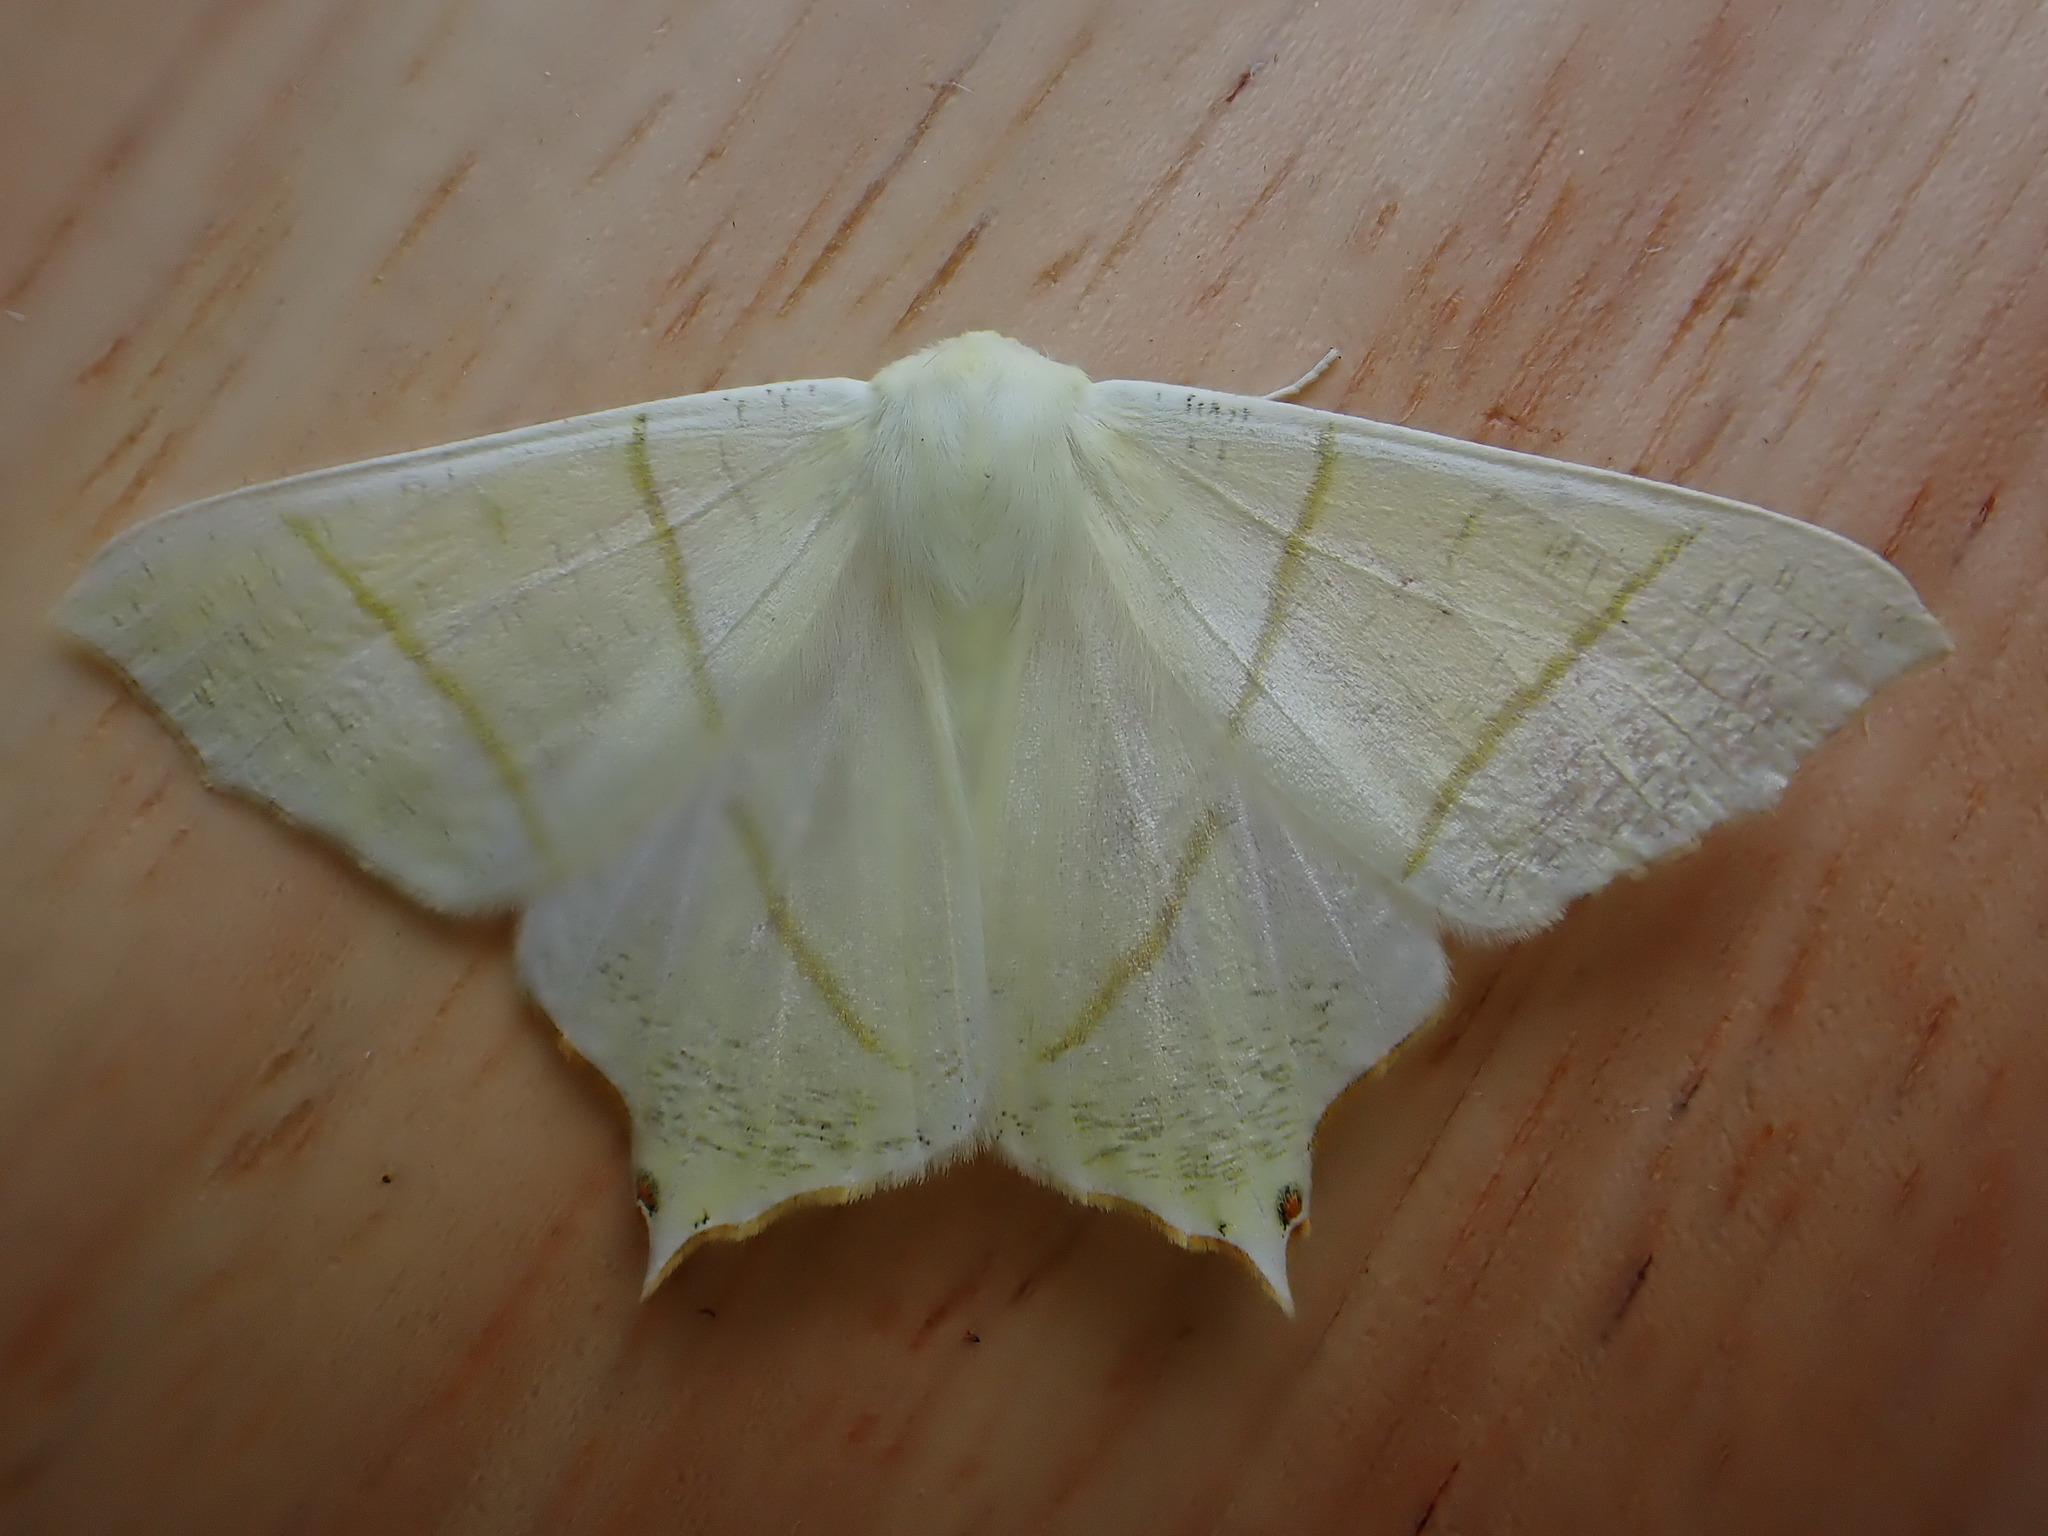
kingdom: Animalia
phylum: Arthropoda
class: Insecta
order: Lepidoptera
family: Geometridae
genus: Ourapteryx
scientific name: Ourapteryx sambucaria
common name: Swallow-tailed moth
